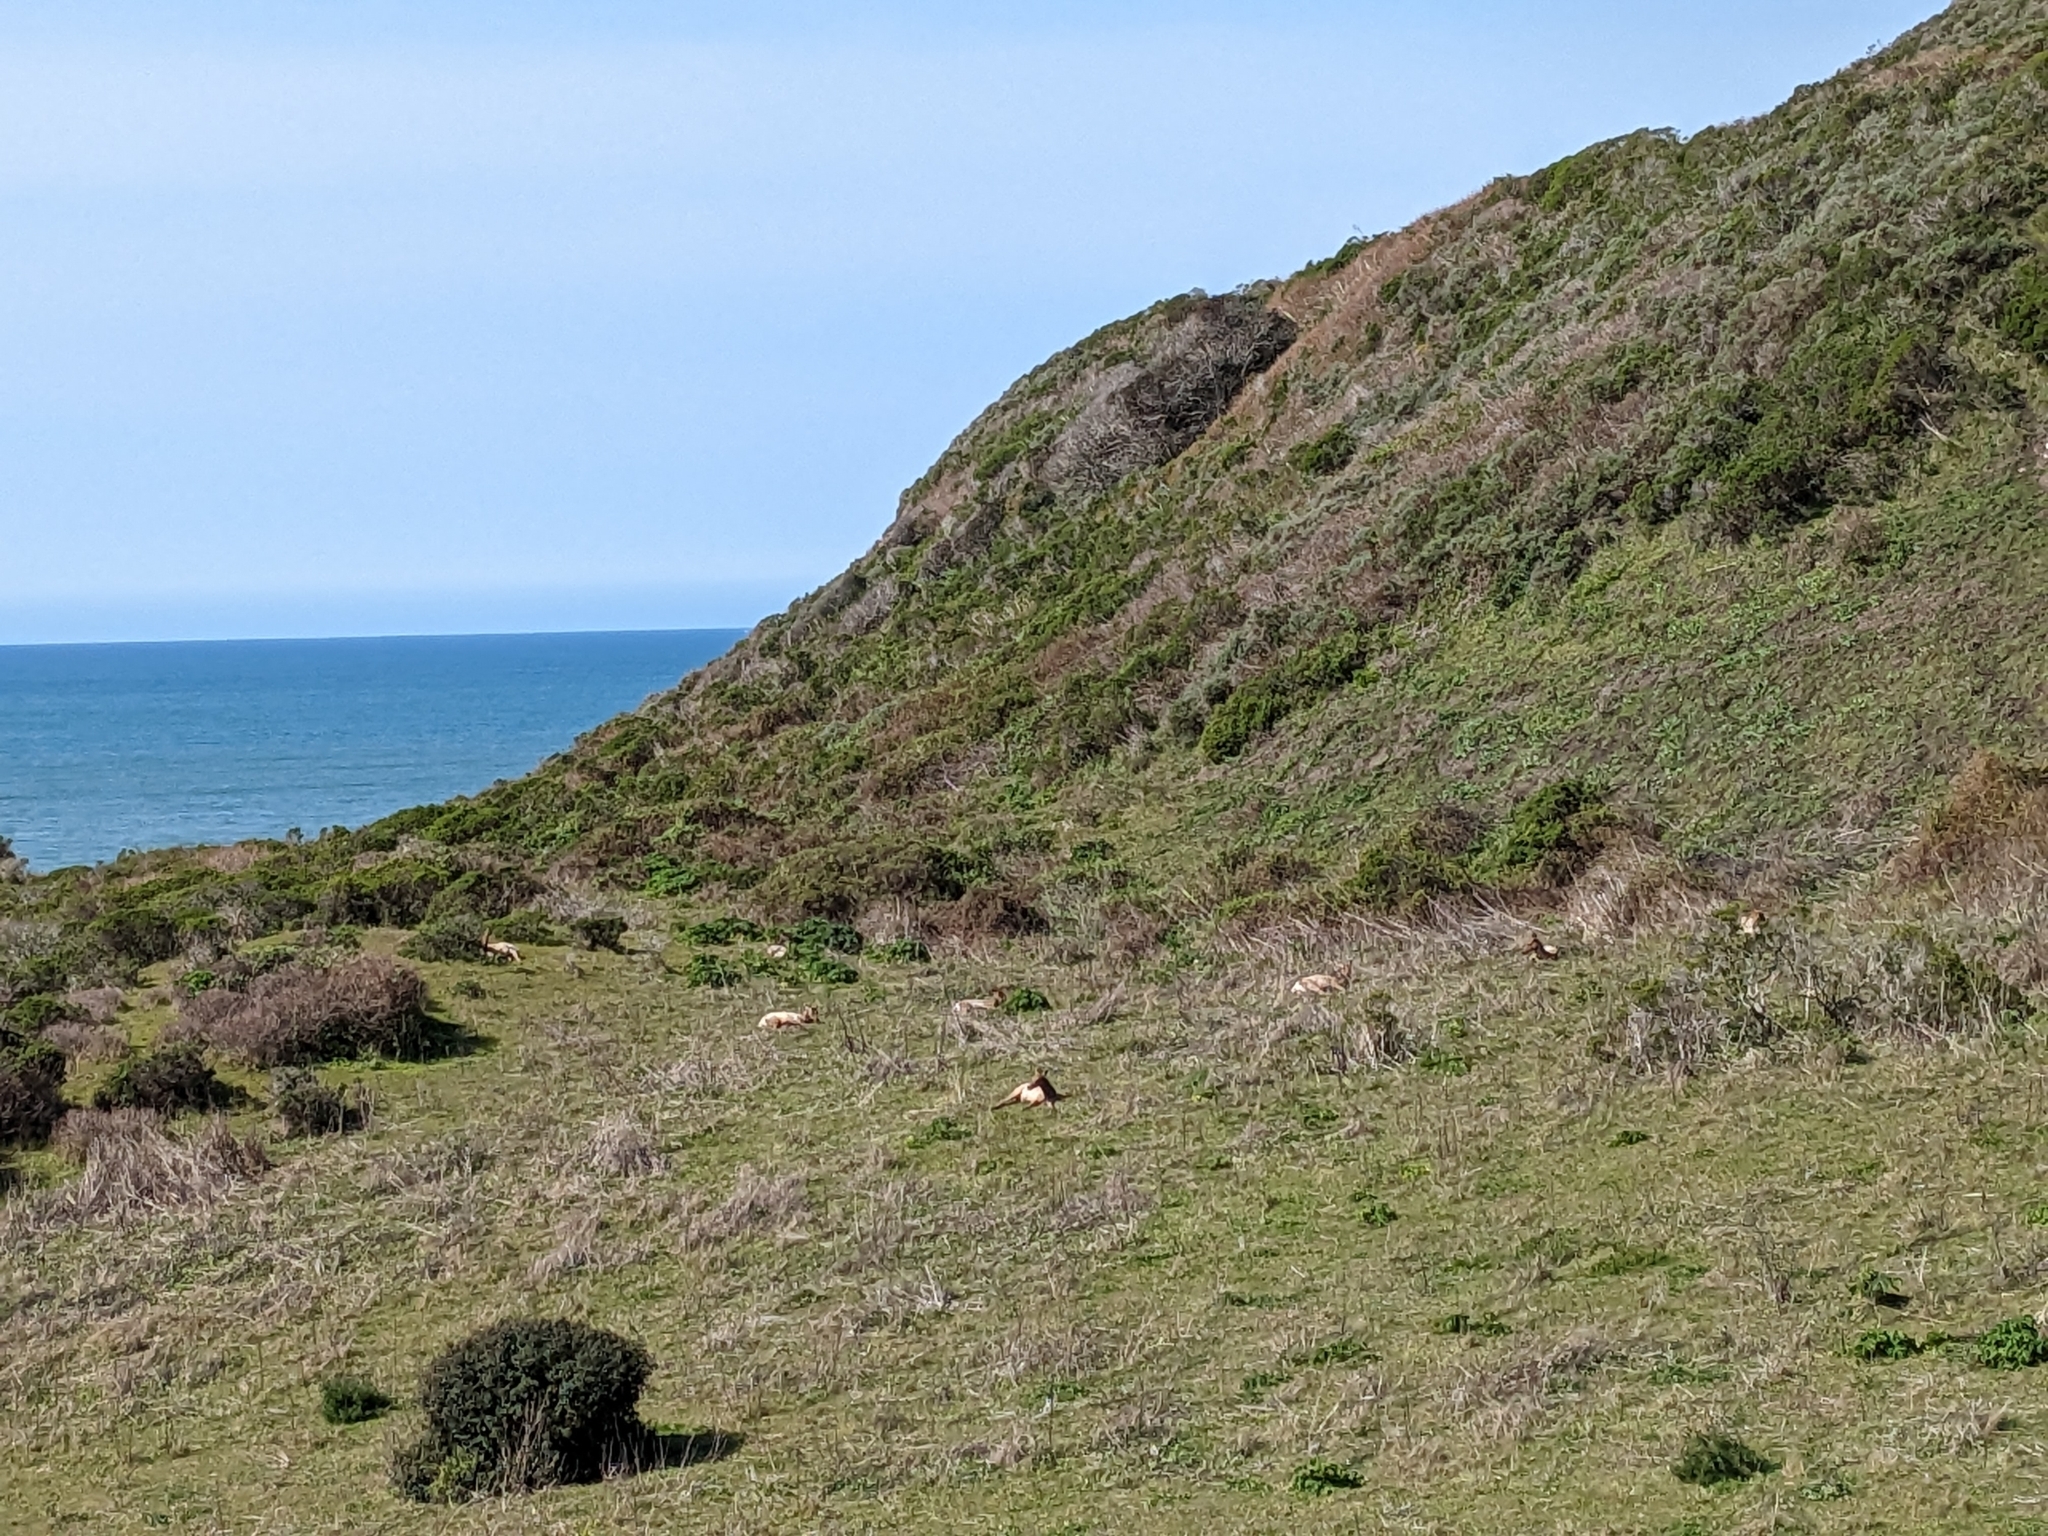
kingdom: Animalia
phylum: Chordata
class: Mammalia
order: Artiodactyla
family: Cervidae
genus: Cervus
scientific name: Cervus elaphus
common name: Red deer
